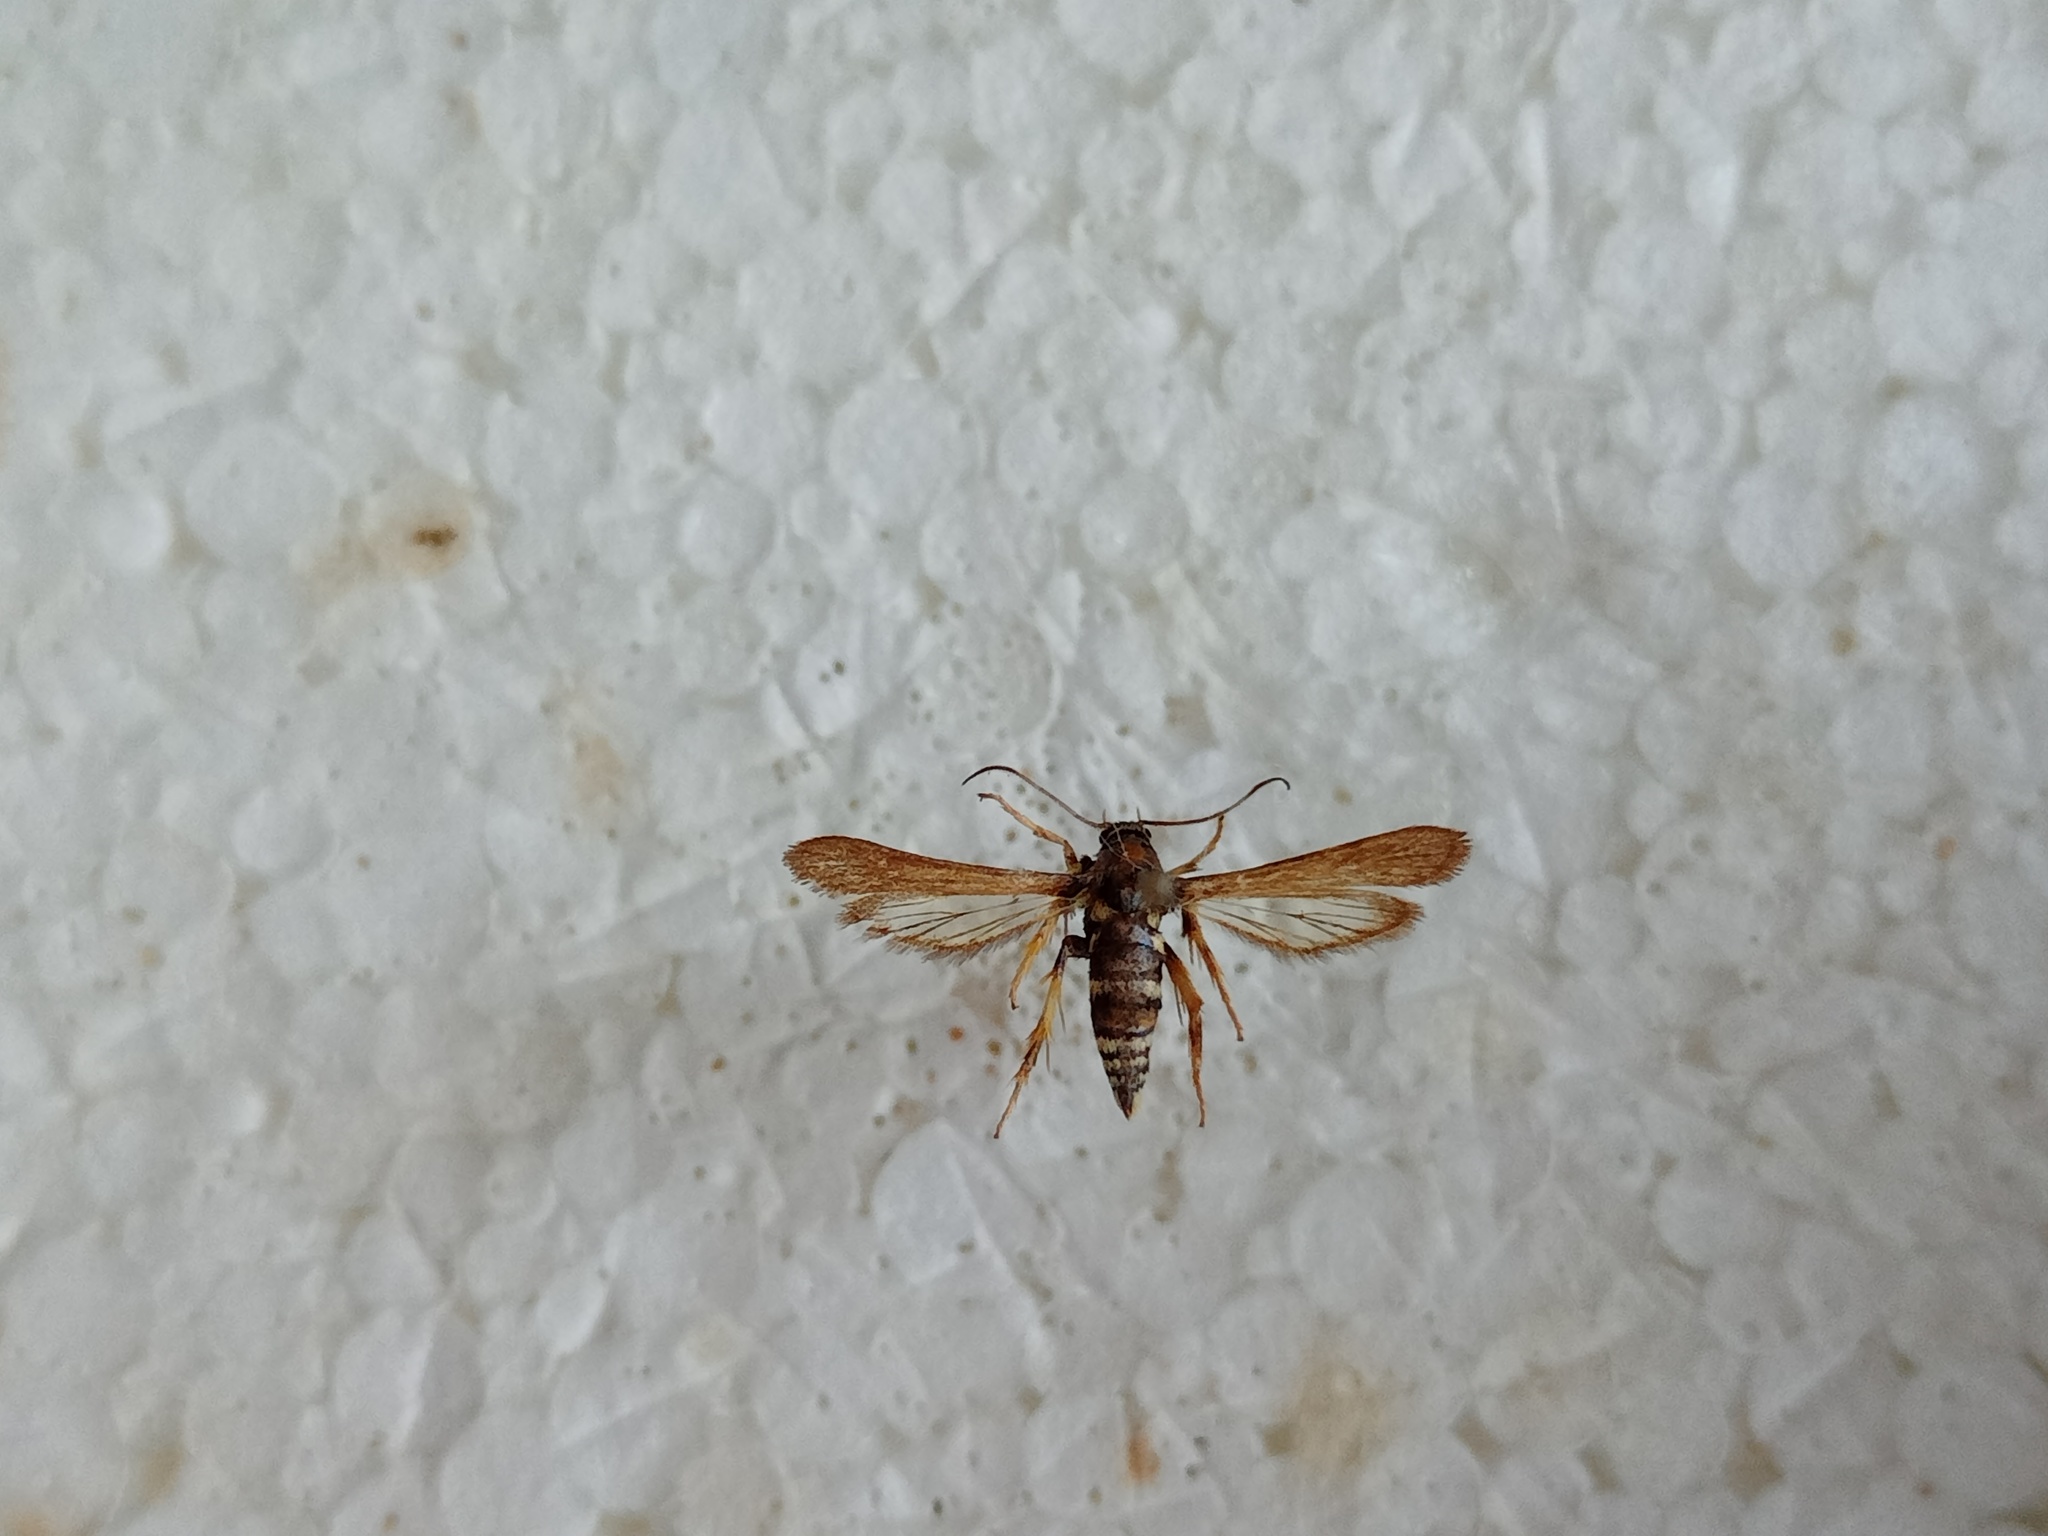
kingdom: Animalia
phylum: Arthropoda
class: Insecta
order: Lepidoptera
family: Sesiidae
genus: Negotinthia
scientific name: Negotinthia hoplisiformis
